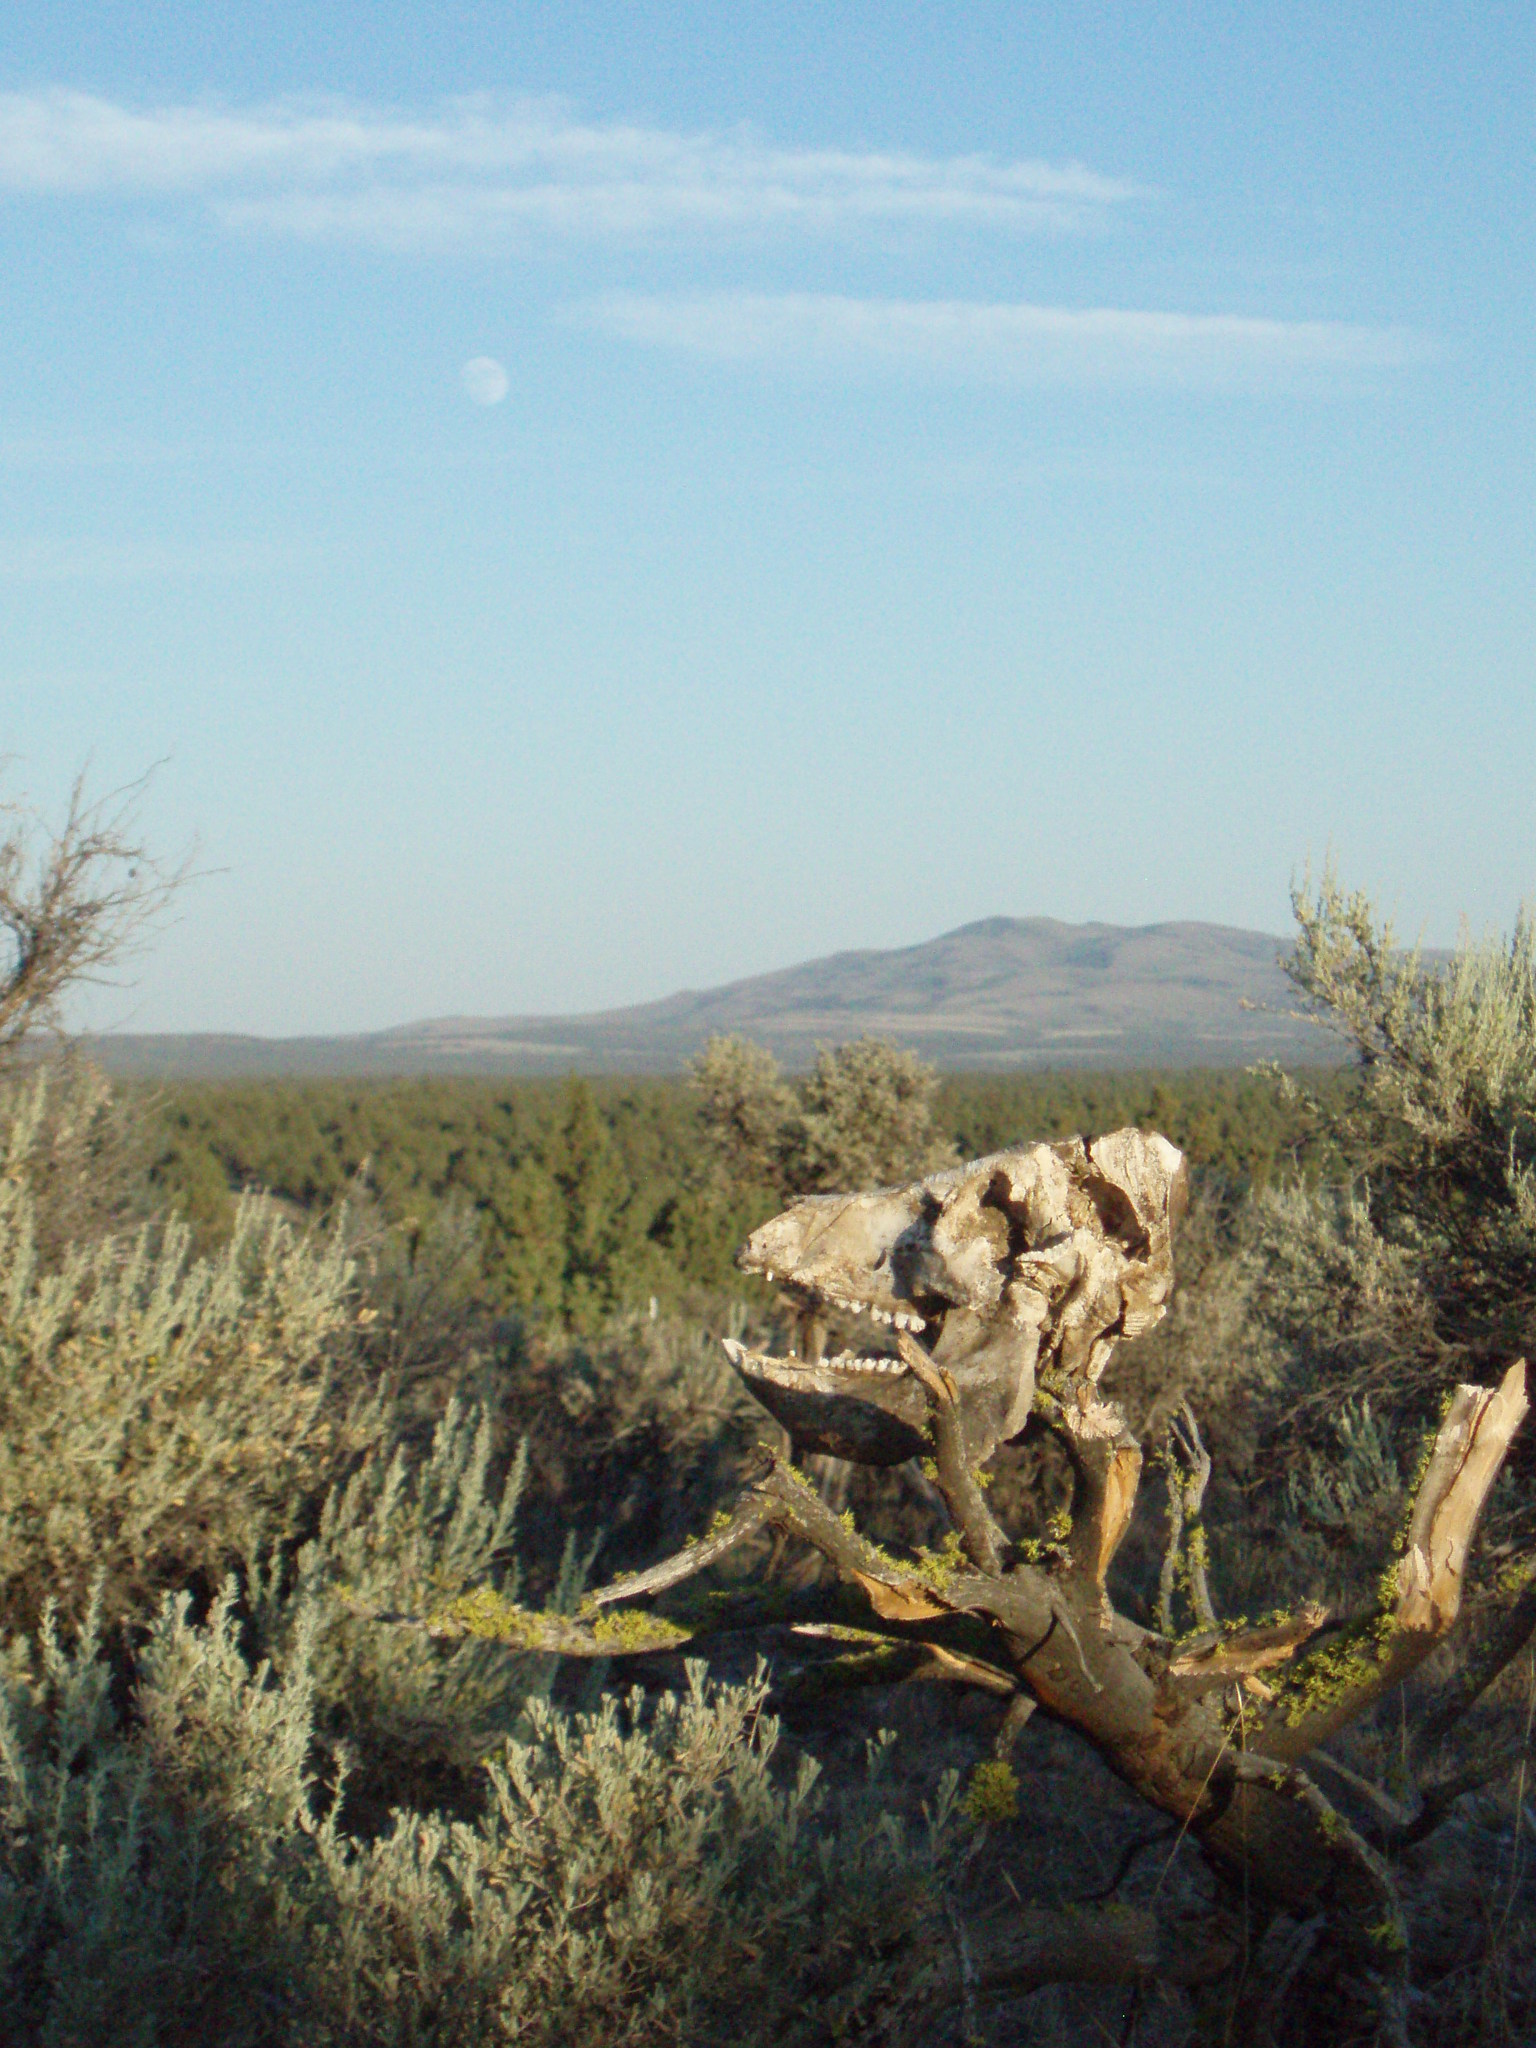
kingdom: Animalia
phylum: Chordata
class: Mammalia
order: Artiodactyla
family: Suidae
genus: Sus
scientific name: Sus scrofa
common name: Wild boar
